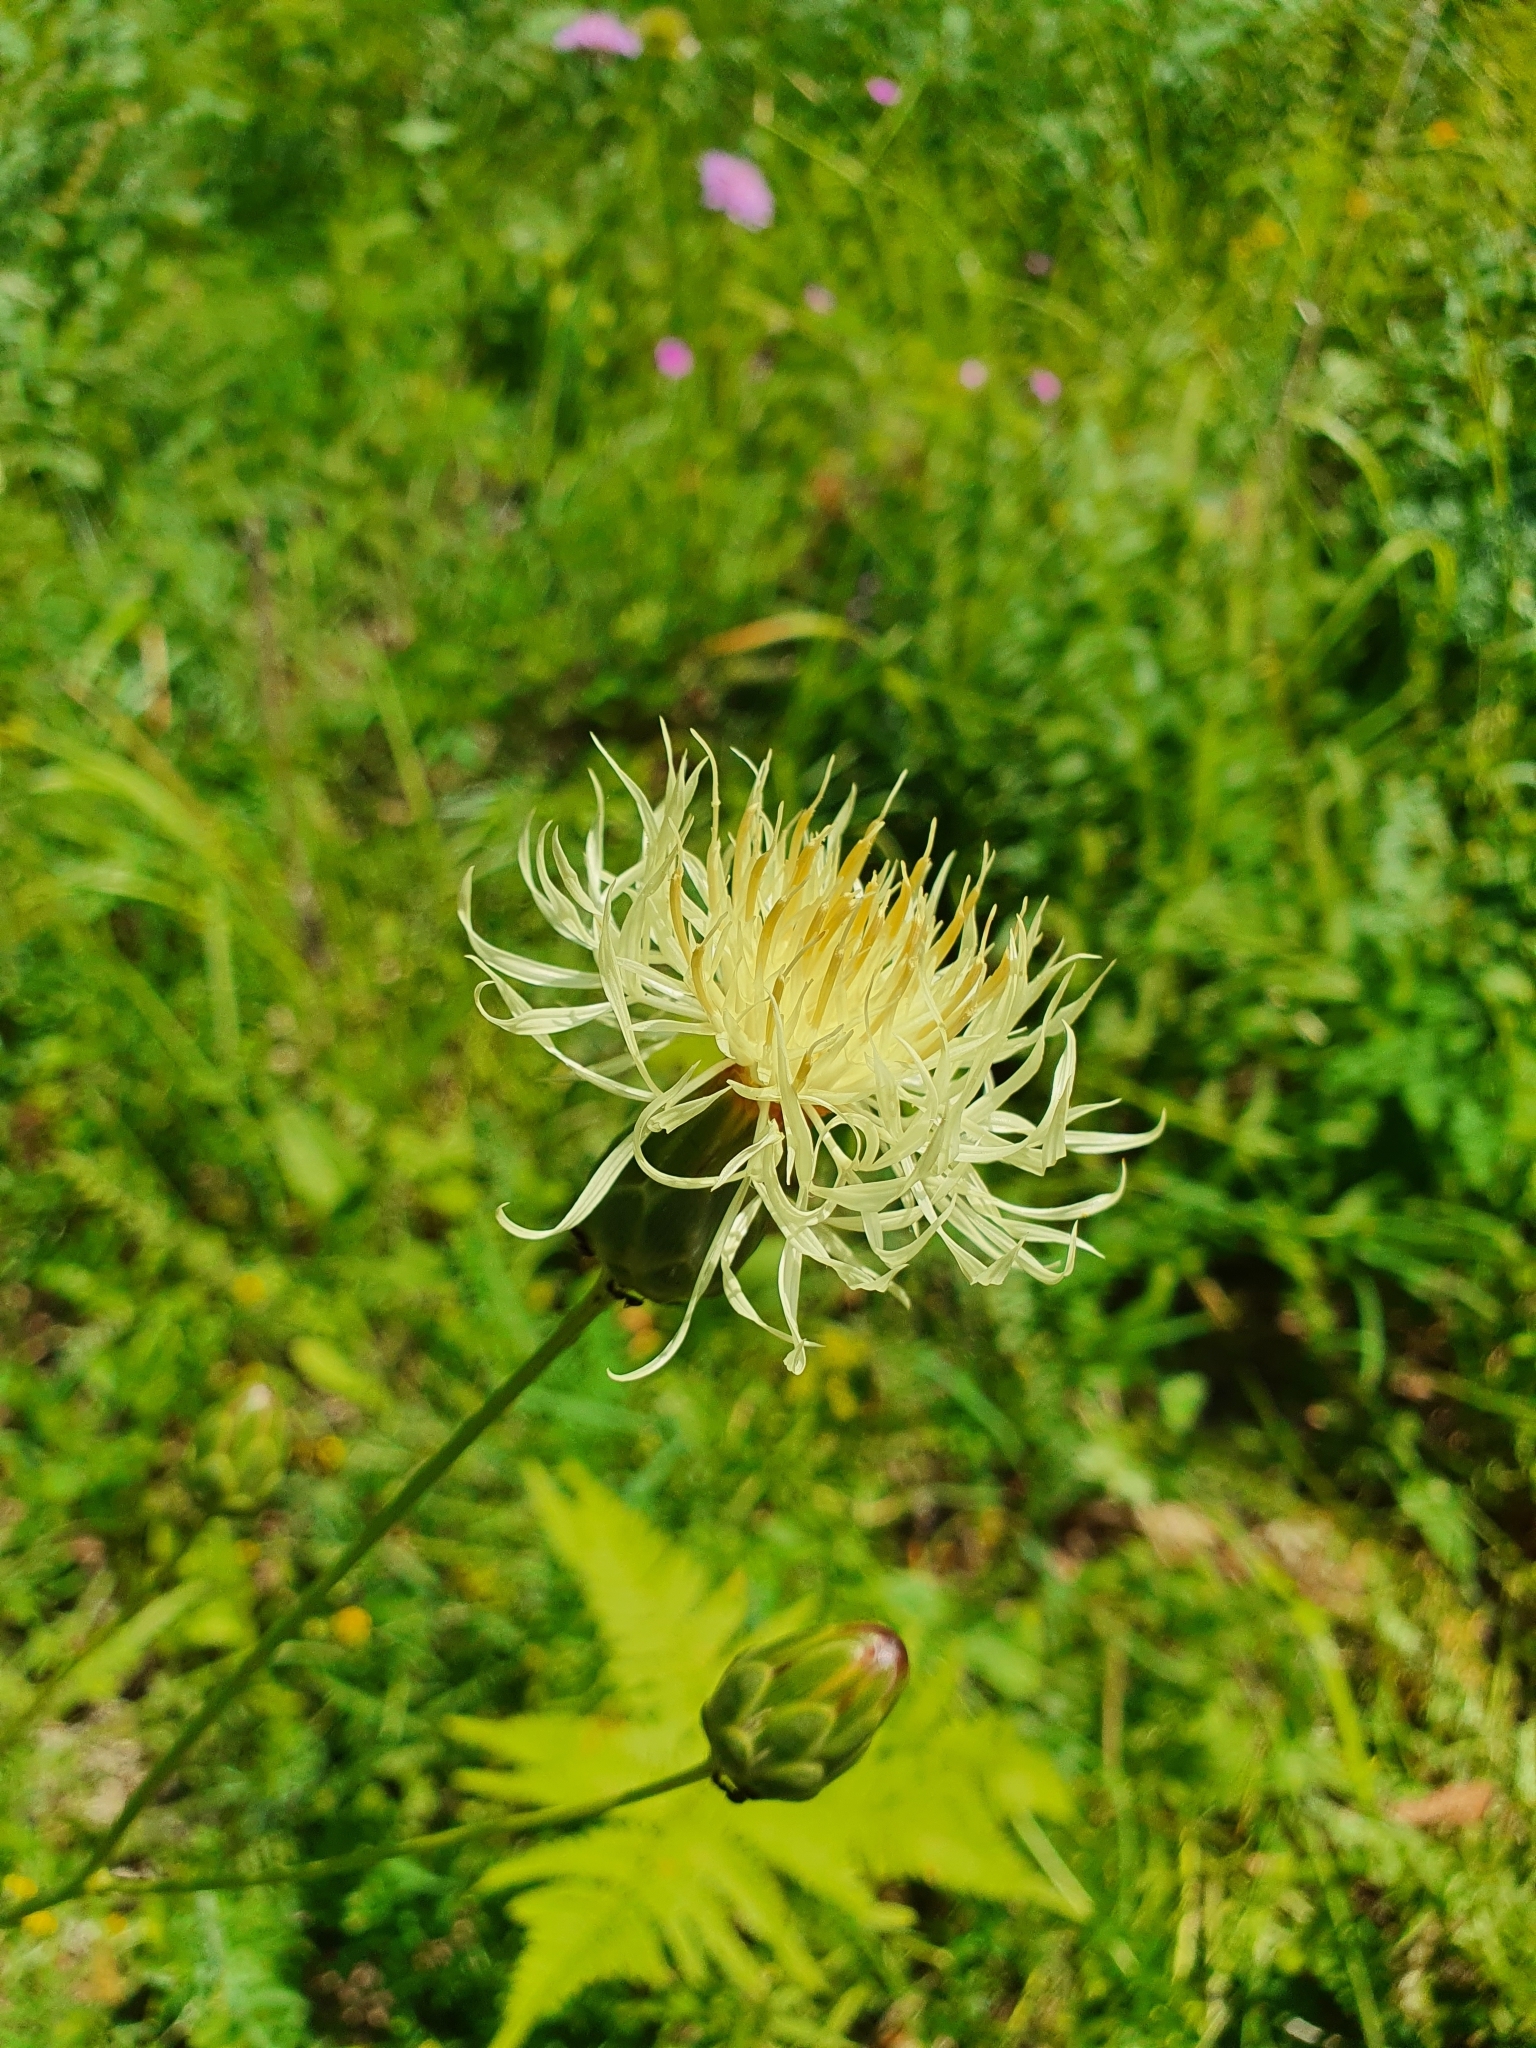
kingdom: Plantae
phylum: Tracheophyta
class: Magnoliopsida
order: Asterales
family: Asteraceae
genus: Rhaponticoides
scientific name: Rhaponticoides ruthenica
